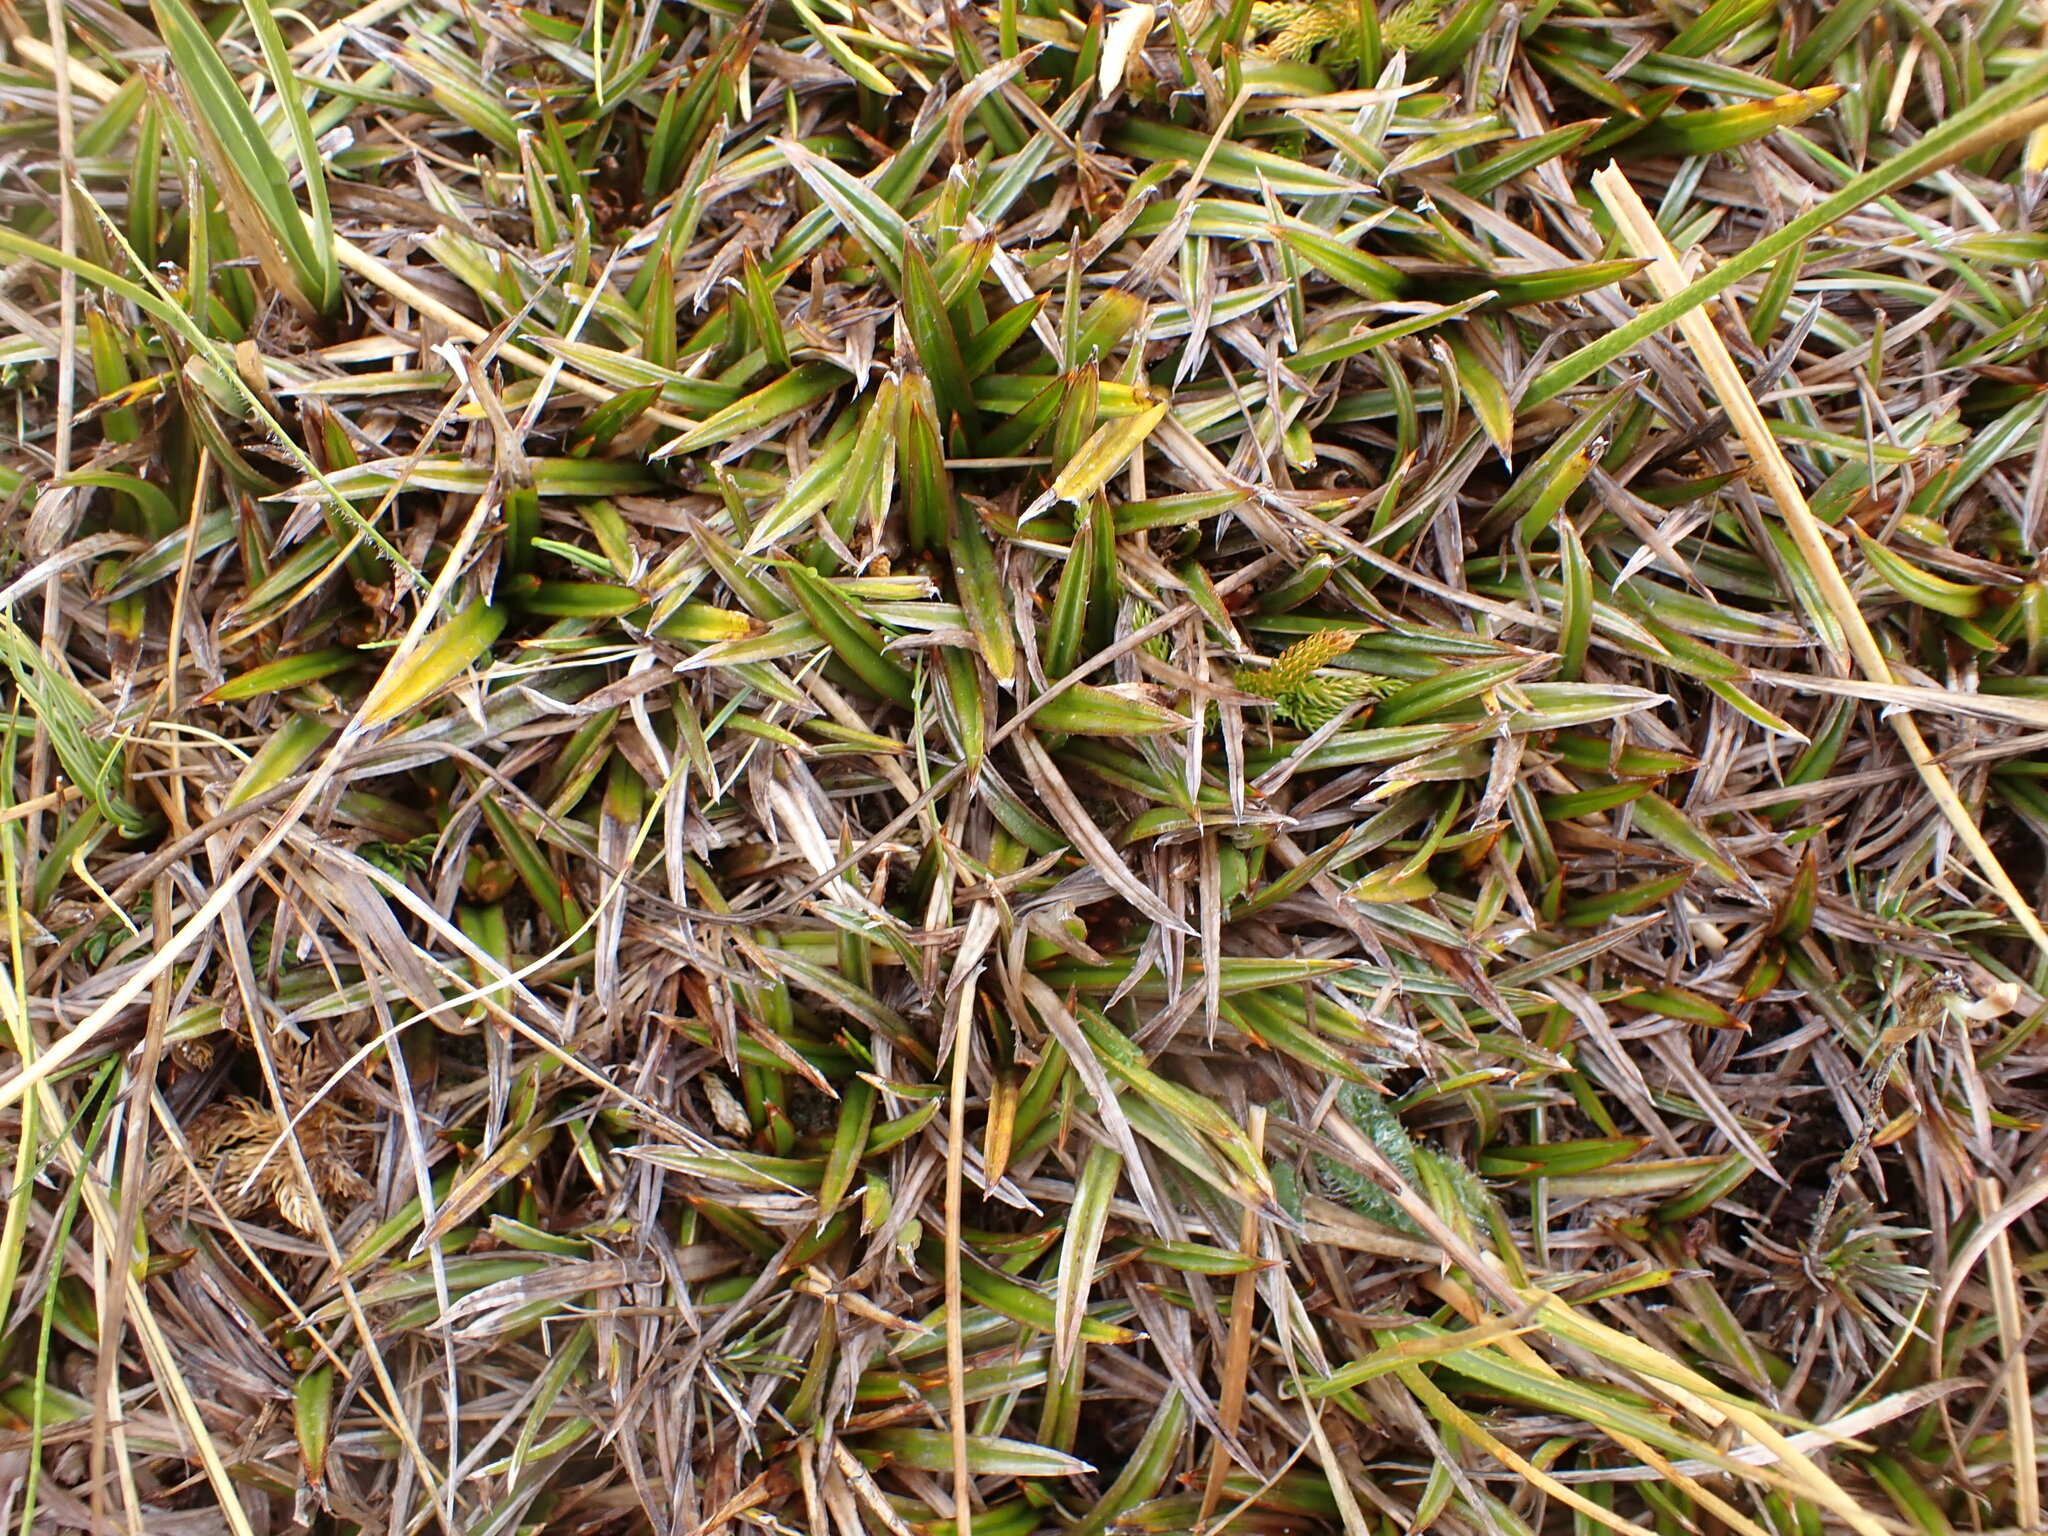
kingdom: Plantae
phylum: Tracheophyta
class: Liliopsida
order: Asparagales
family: Asteliaceae
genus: Astelia
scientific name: Astelia linearis
